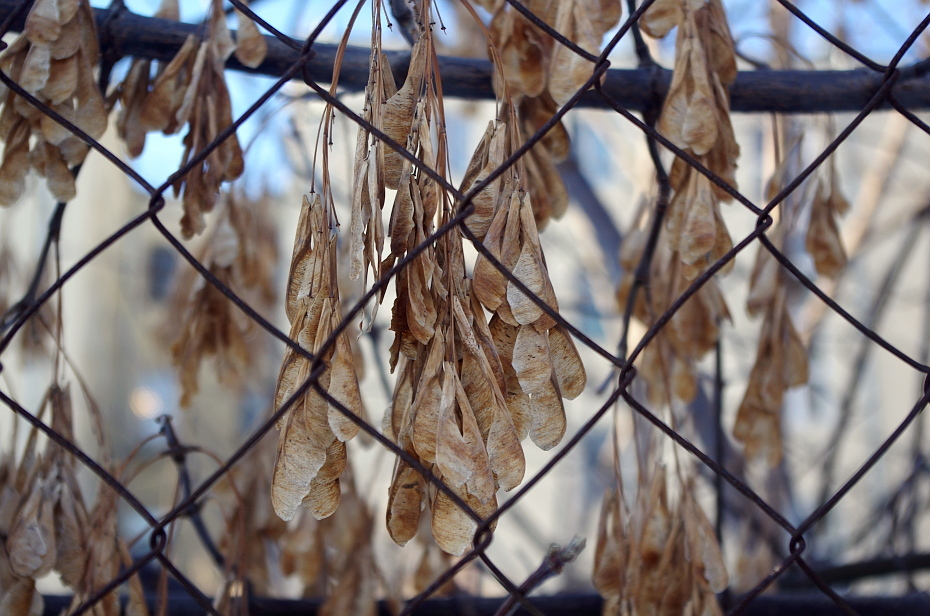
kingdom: Plantae
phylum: Tracheophyta
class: Magnoliopsida
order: Sapindales
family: Sapindaceae
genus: Acer
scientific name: Acer negundo
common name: Ashleaf maple
